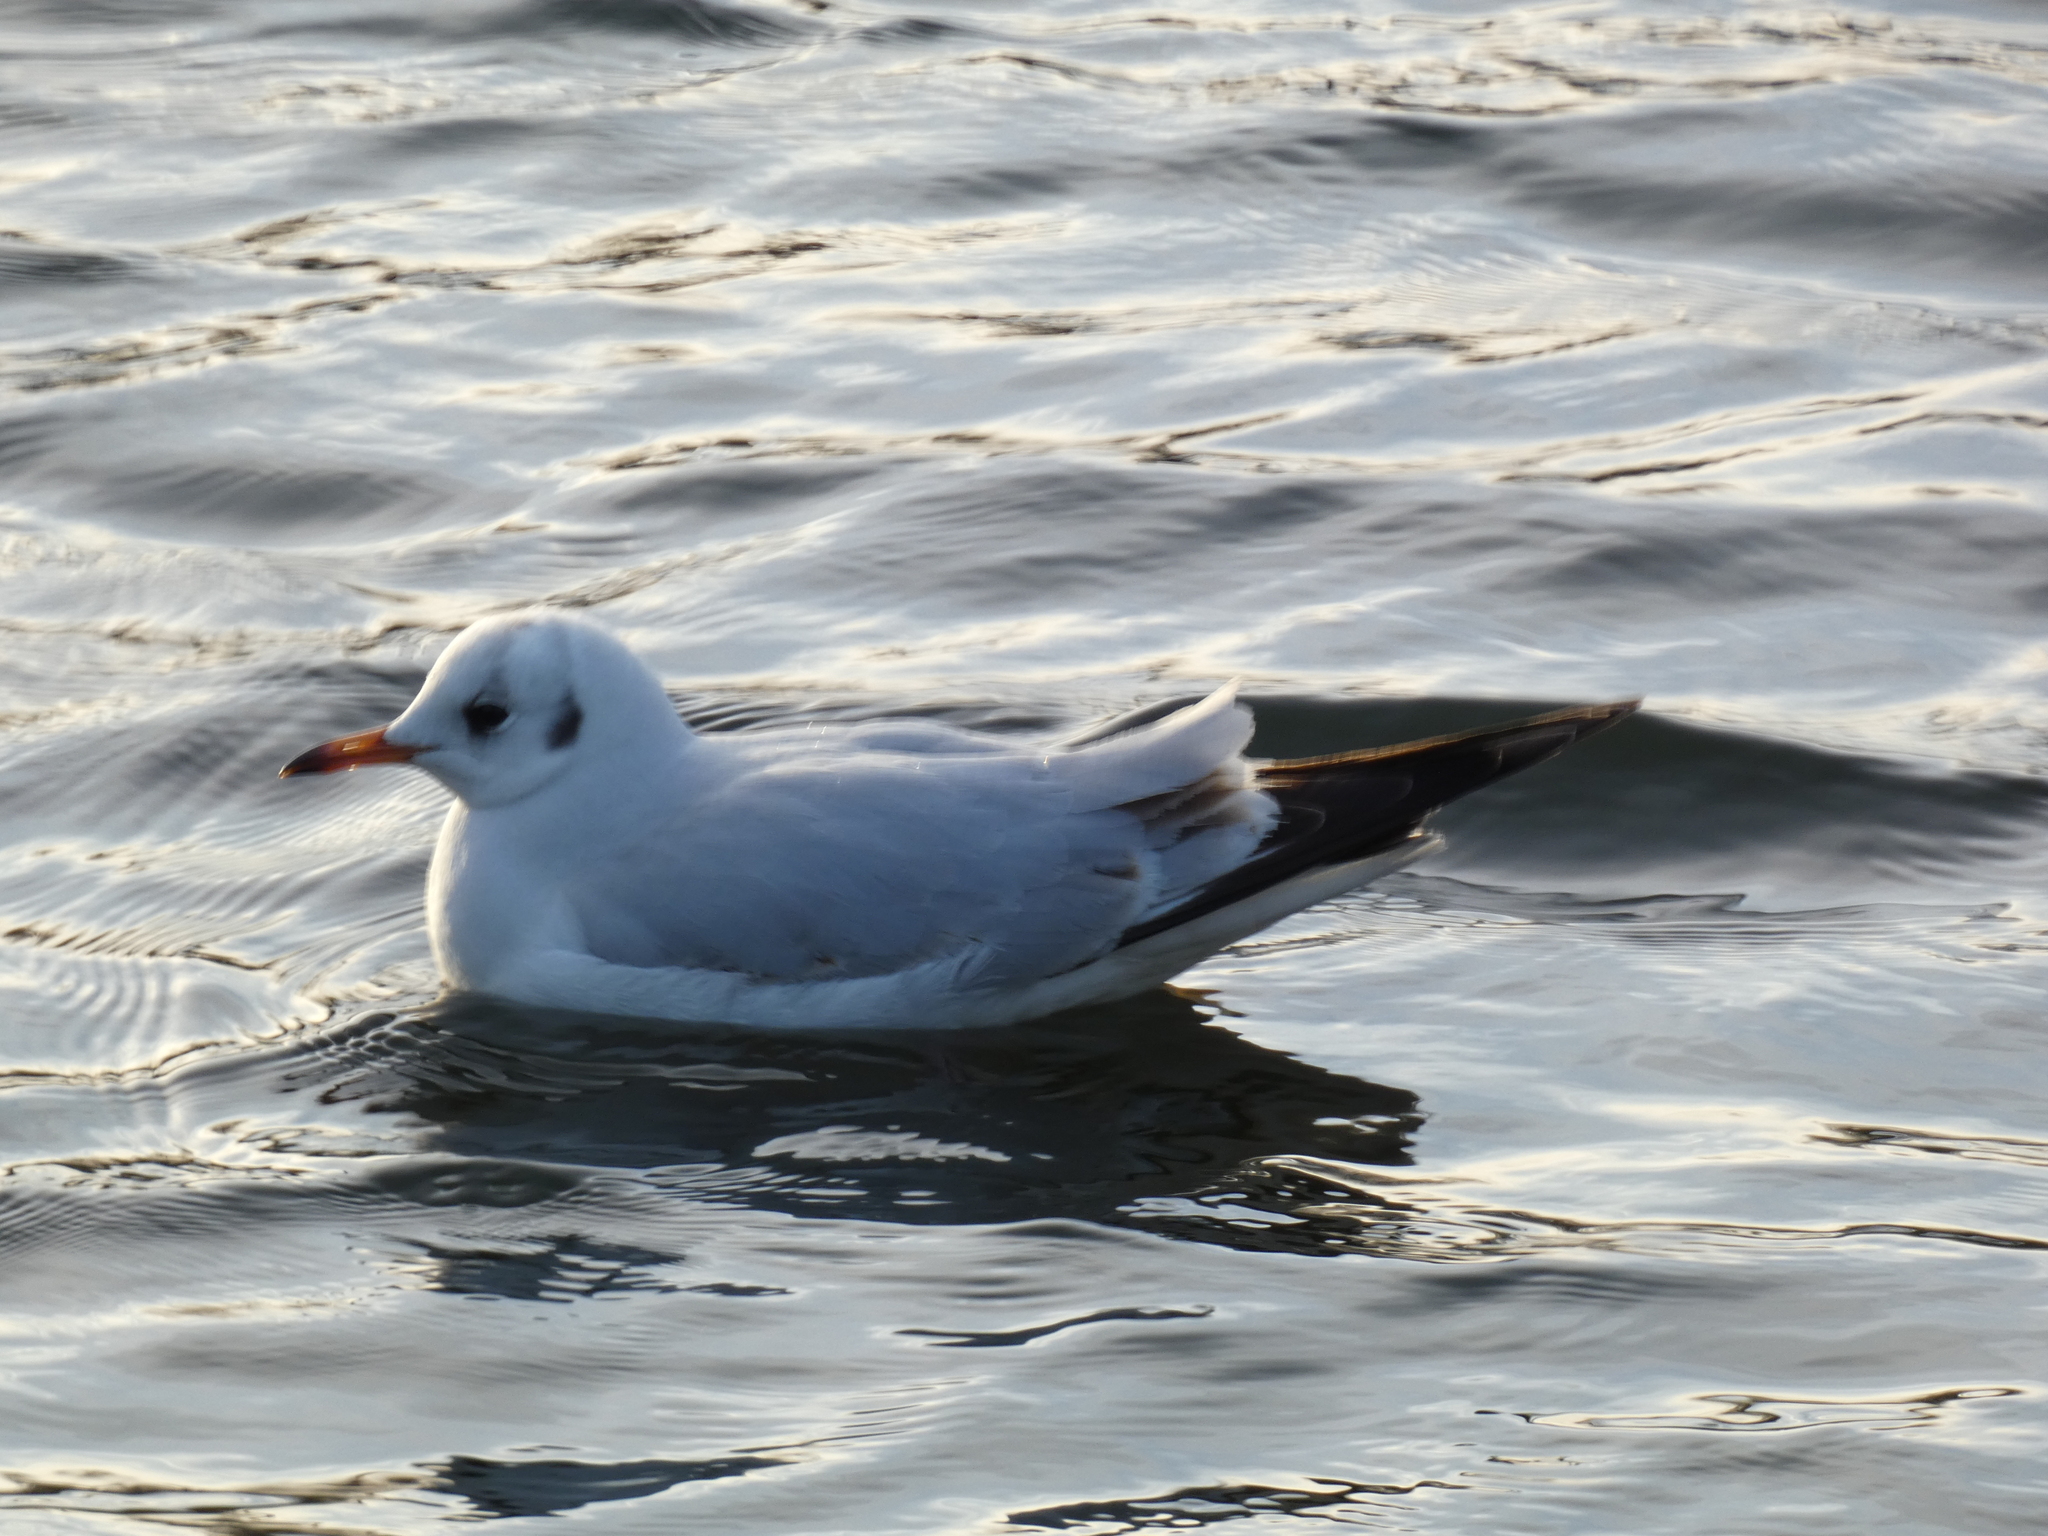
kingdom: Animalia
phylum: Chordata
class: Aves
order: Charadriiformes
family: Laridae
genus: Chroicocephalus
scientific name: Chroicocephalus ridibundus
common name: Black-headed gull
